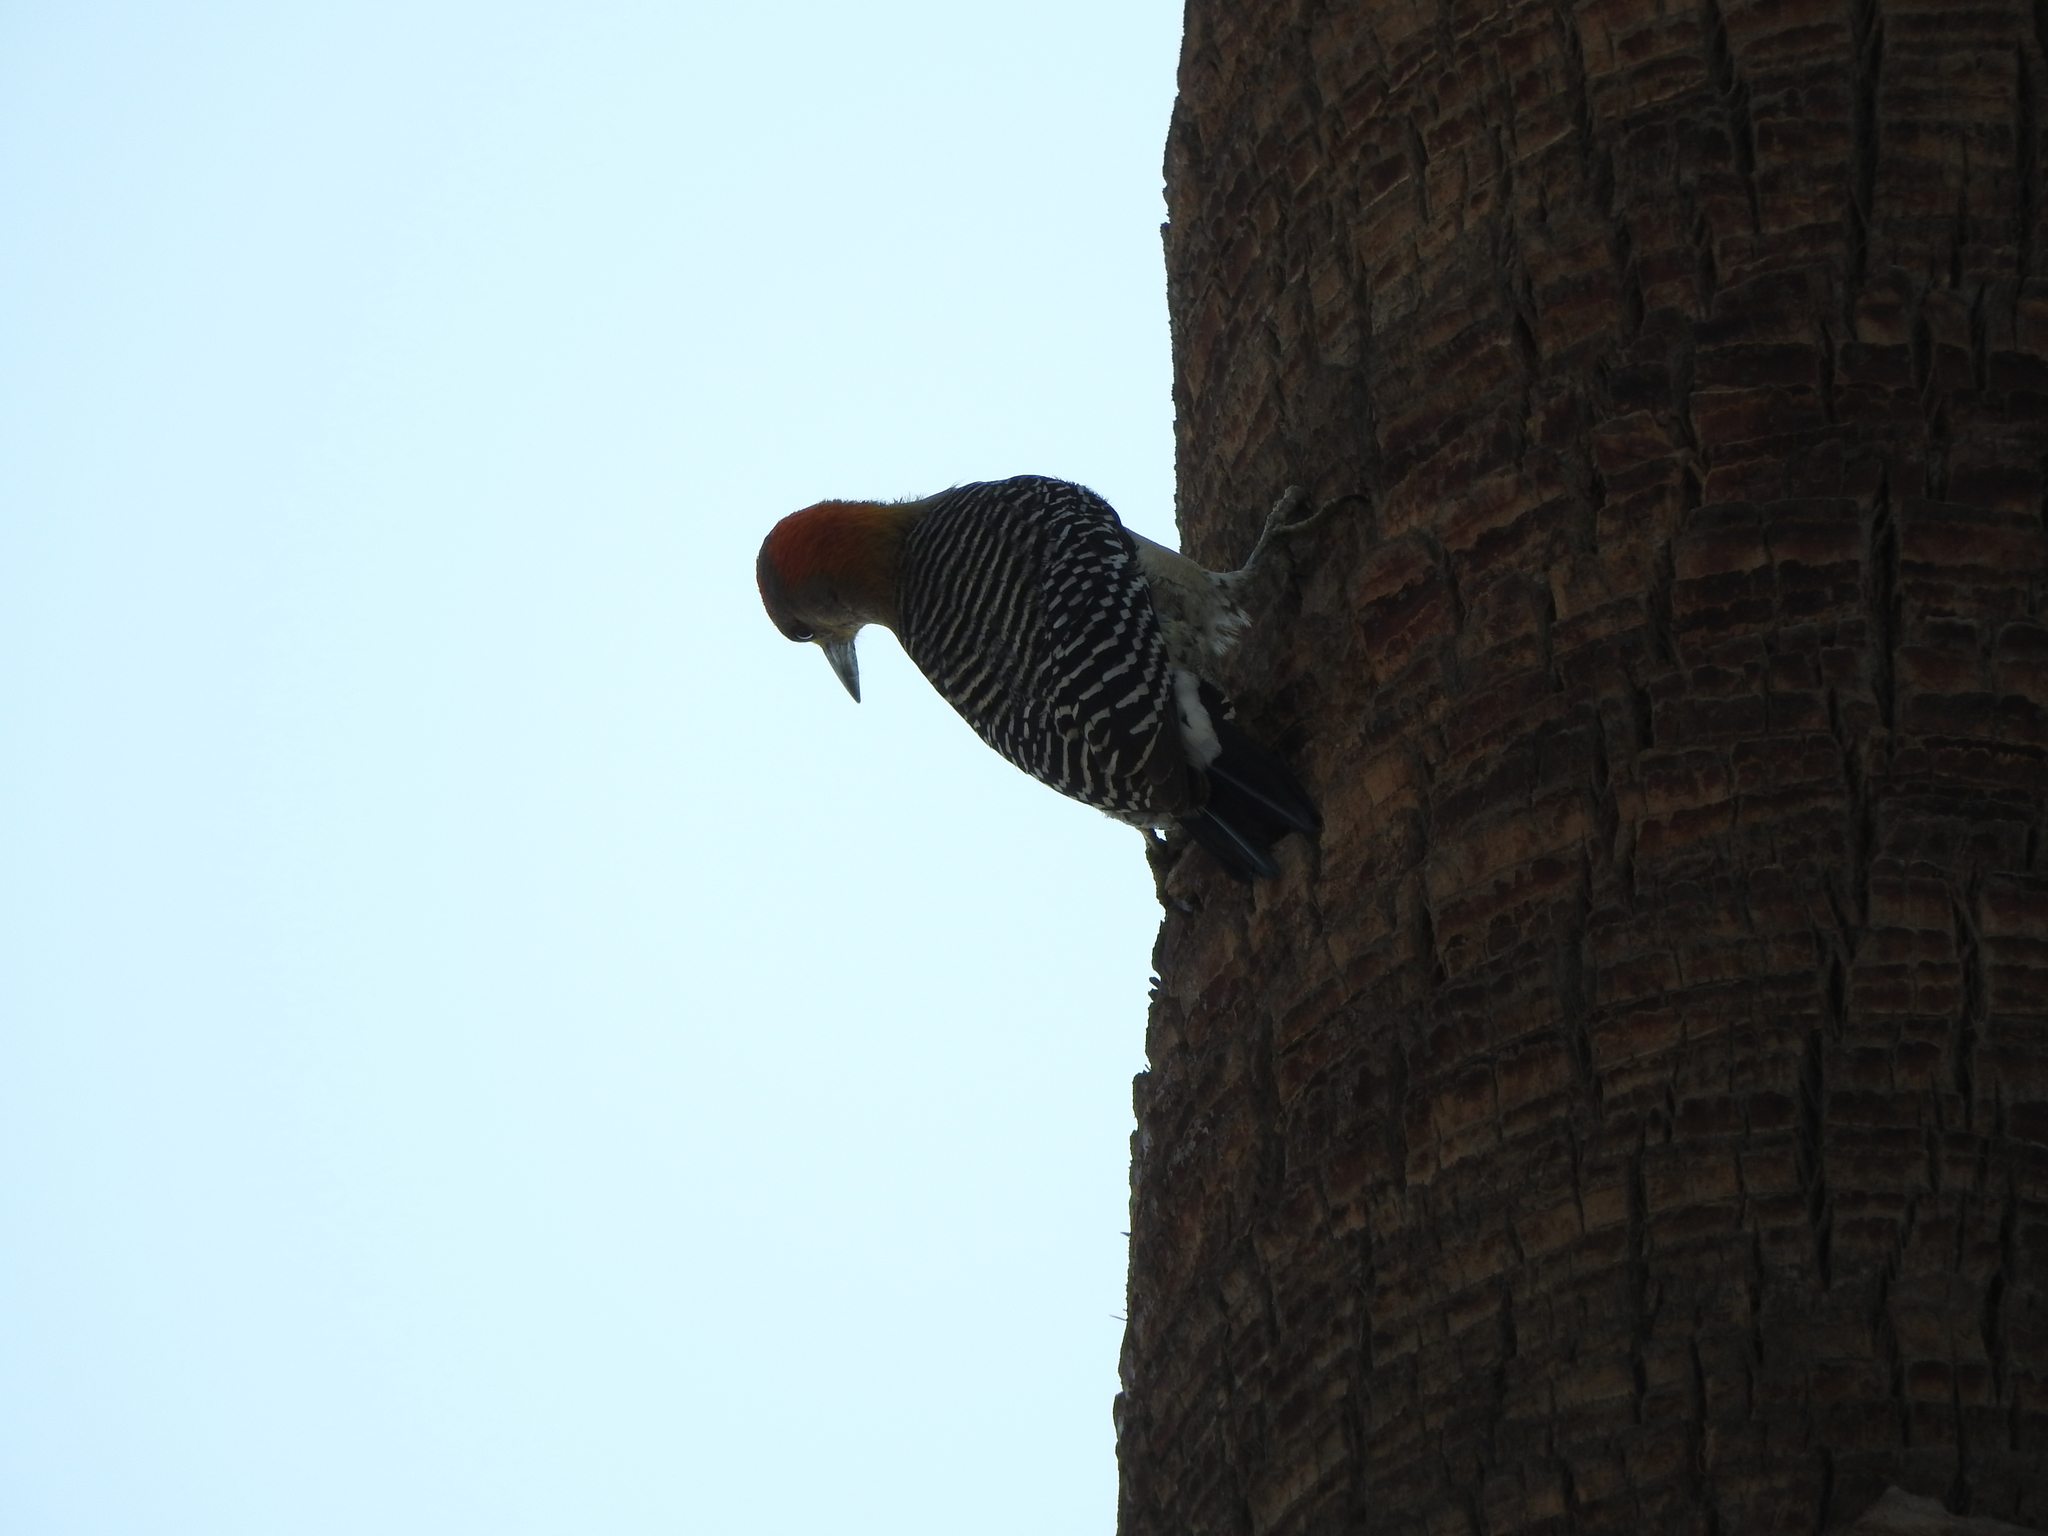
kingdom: Animalia
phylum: Chordata
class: Aves
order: Piciformes
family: Picidae
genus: Melanerpes
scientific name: Melanerpes aurifrons
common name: Golden-fronted woodpecker
